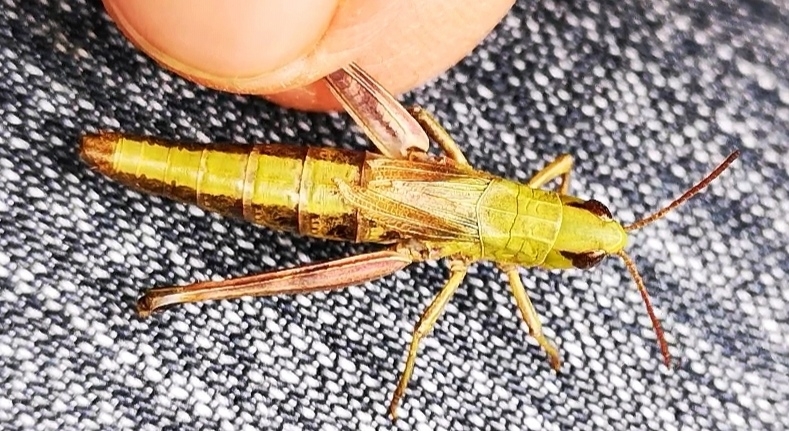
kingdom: Animalia
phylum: Arthropoda
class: Insecta
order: Orthoptera
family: Acrididae
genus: Pseudochorthippus
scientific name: Pseudochorthippus parallelus
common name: Meadow grasshopper
